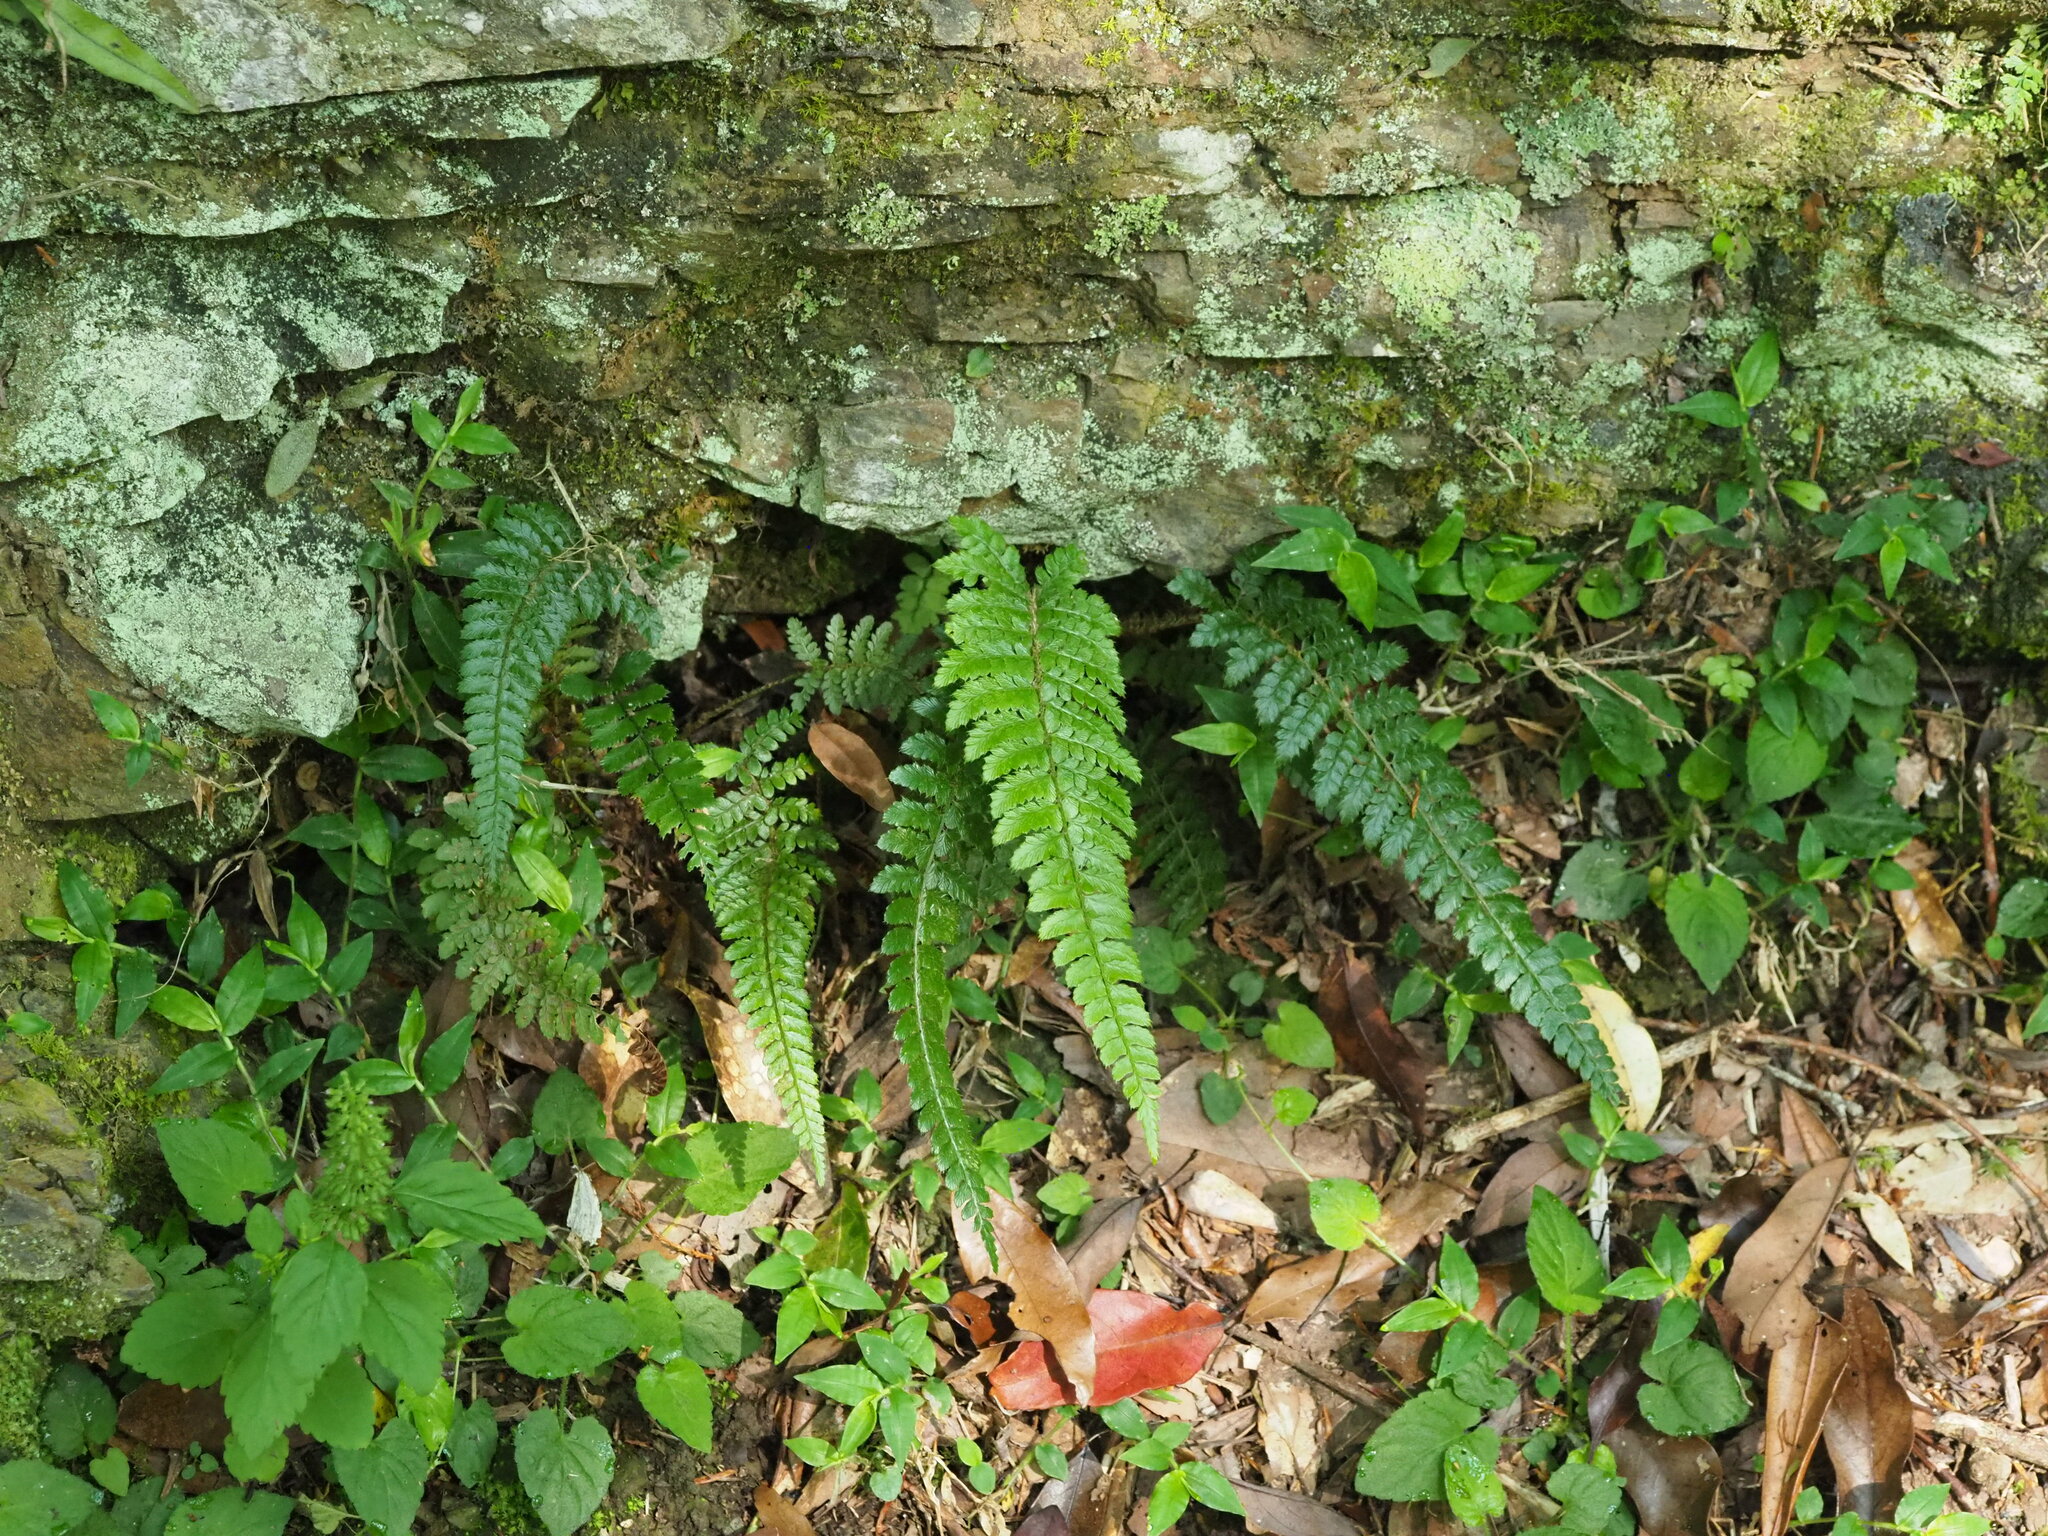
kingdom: Plantae
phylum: Tracheophyta
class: Polypodiopsida
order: Polypodiales
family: Dryopteridaceae
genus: Polystichum
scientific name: Polystichum parvipinnulum
